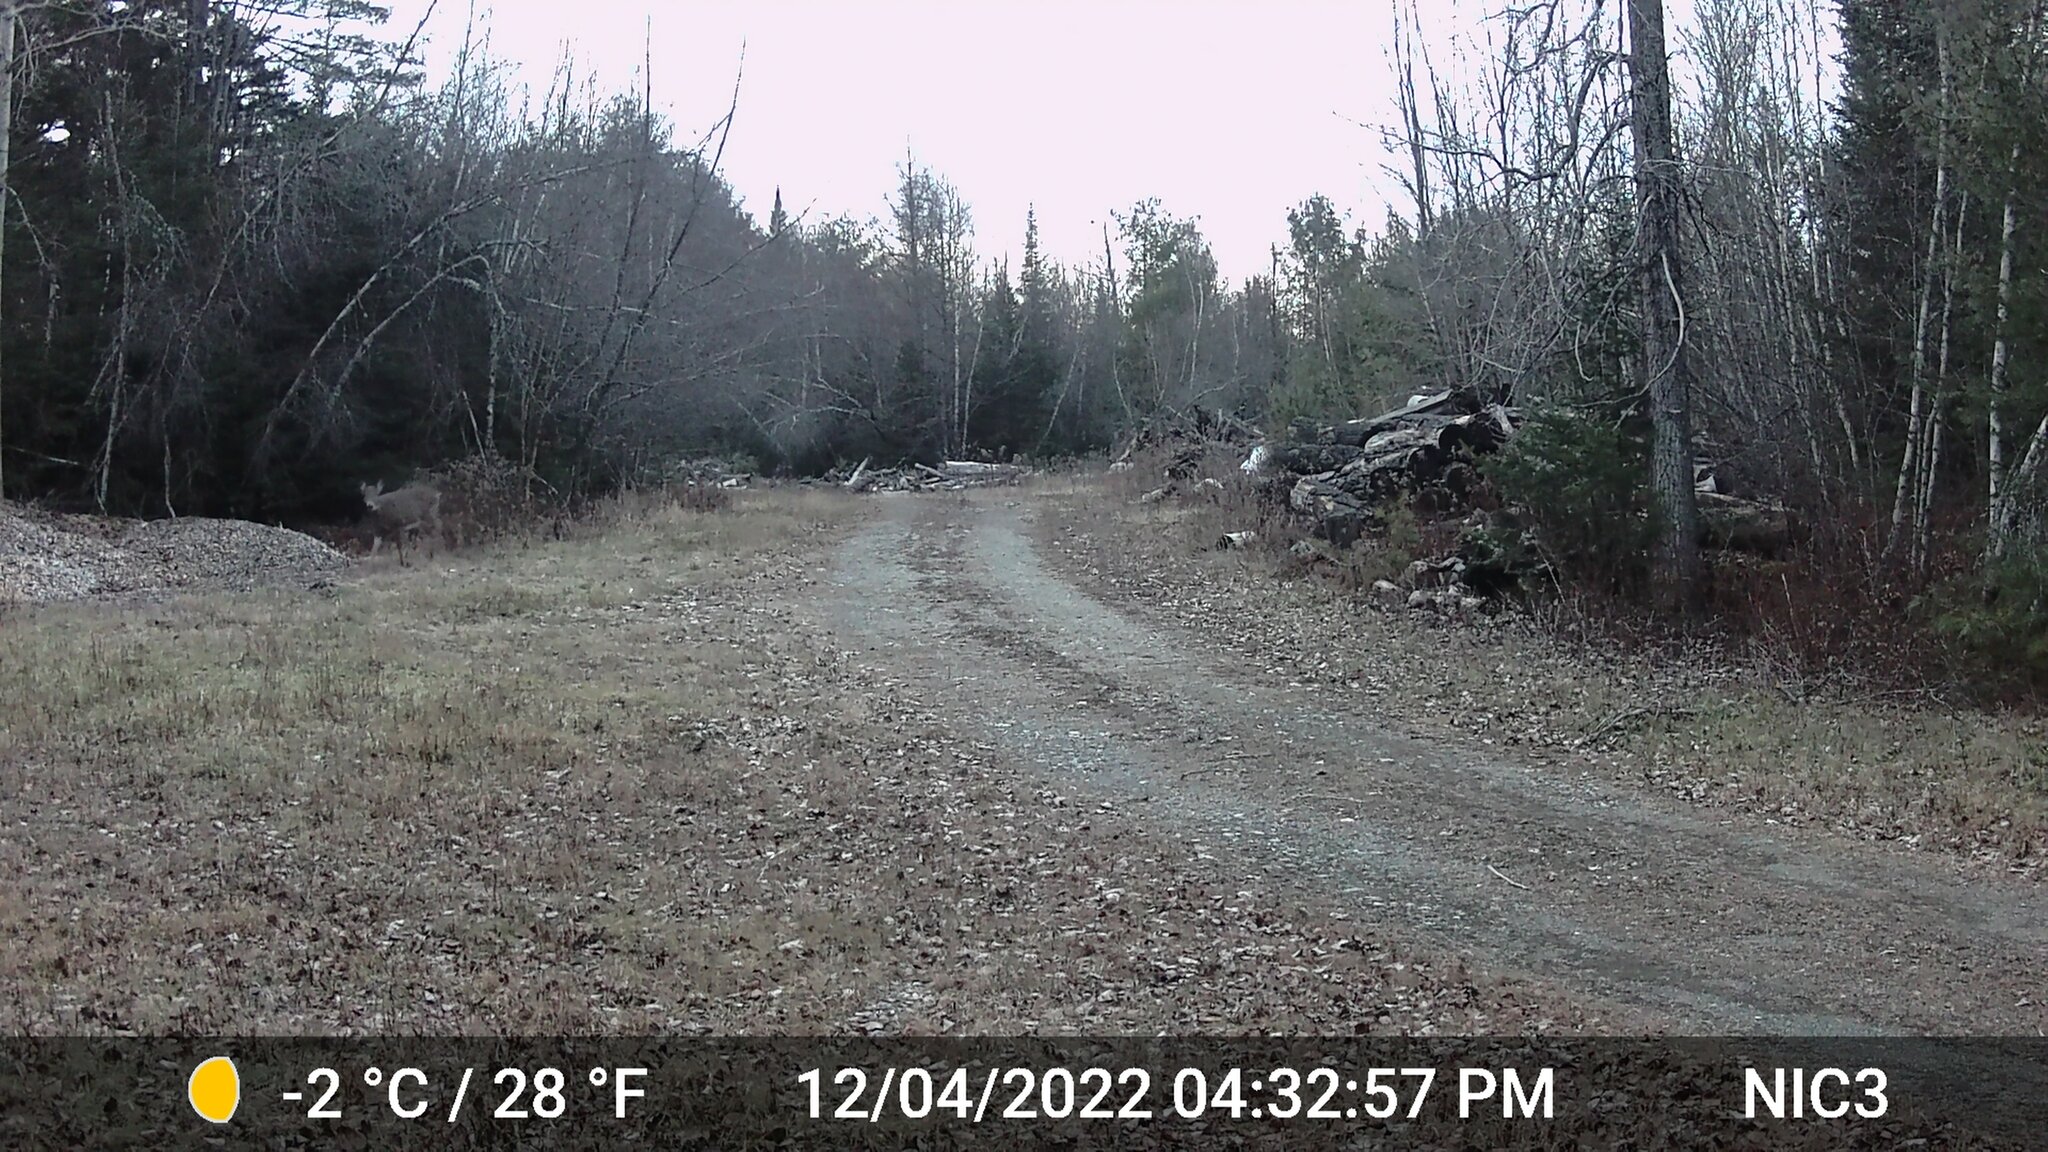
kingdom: Animalia
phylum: Chordata
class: Mammalia
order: Artiodactyla
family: Cervidae
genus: Odocoileus
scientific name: Odocoileus virginianus
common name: White-tailed deer
